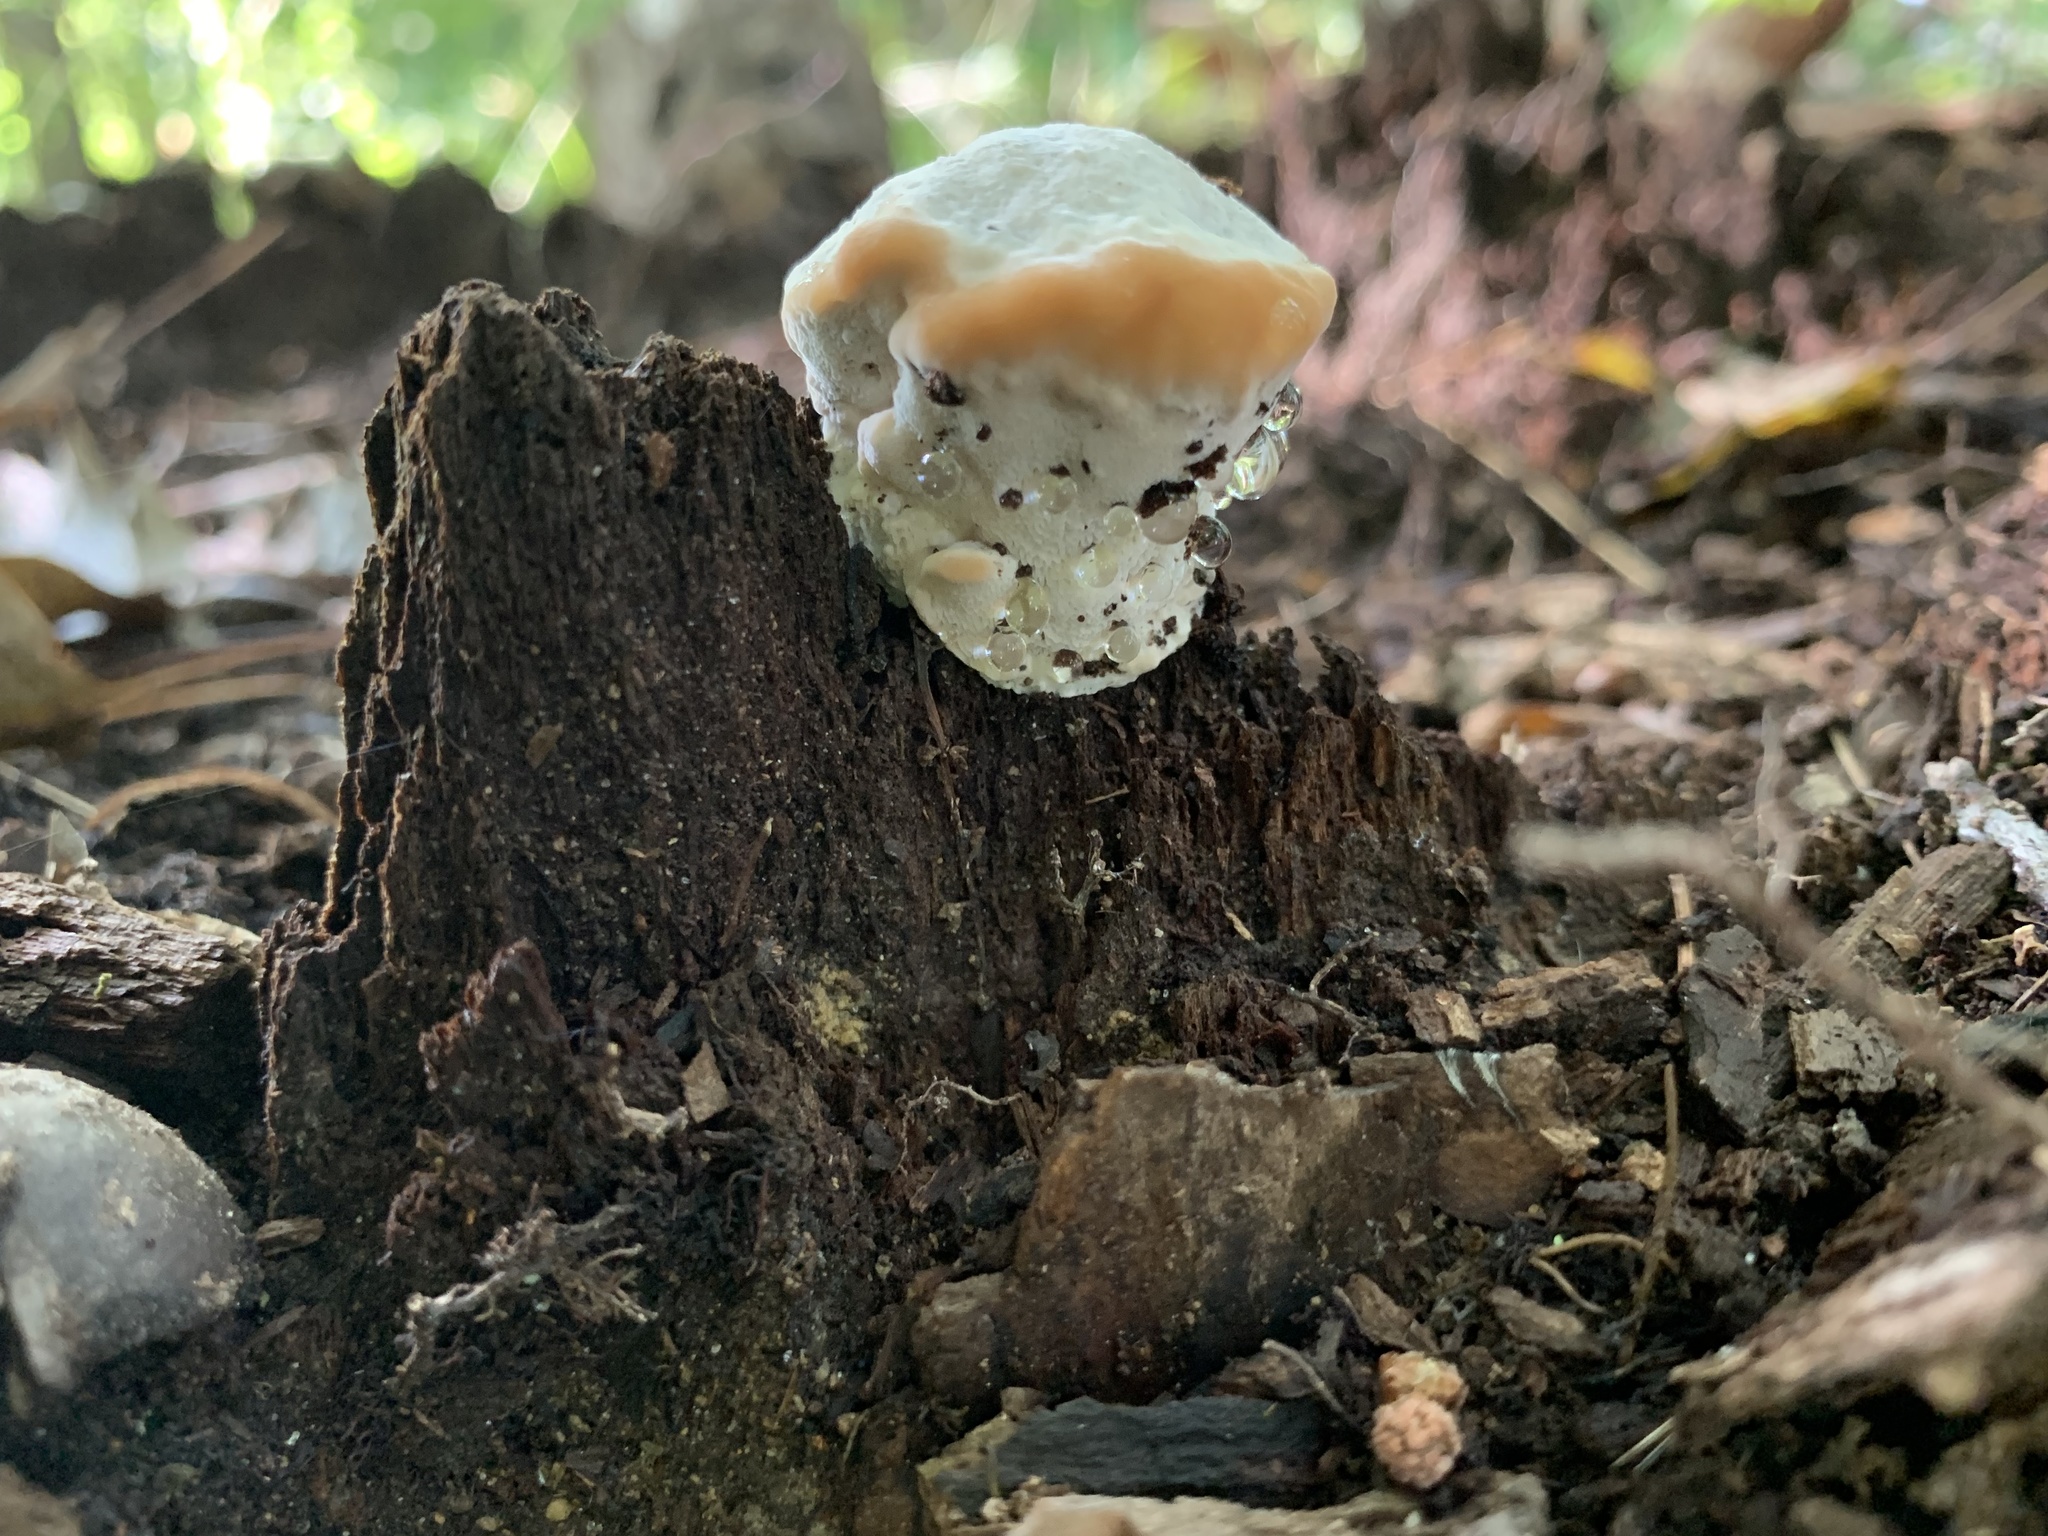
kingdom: Fungi
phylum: Basidiomycota
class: Agaricomycetes
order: Polyporales
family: Fomitopsidaceae
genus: Niveoporofomes
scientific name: Niveoporofomes spraguei
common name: Green cheese polypore
